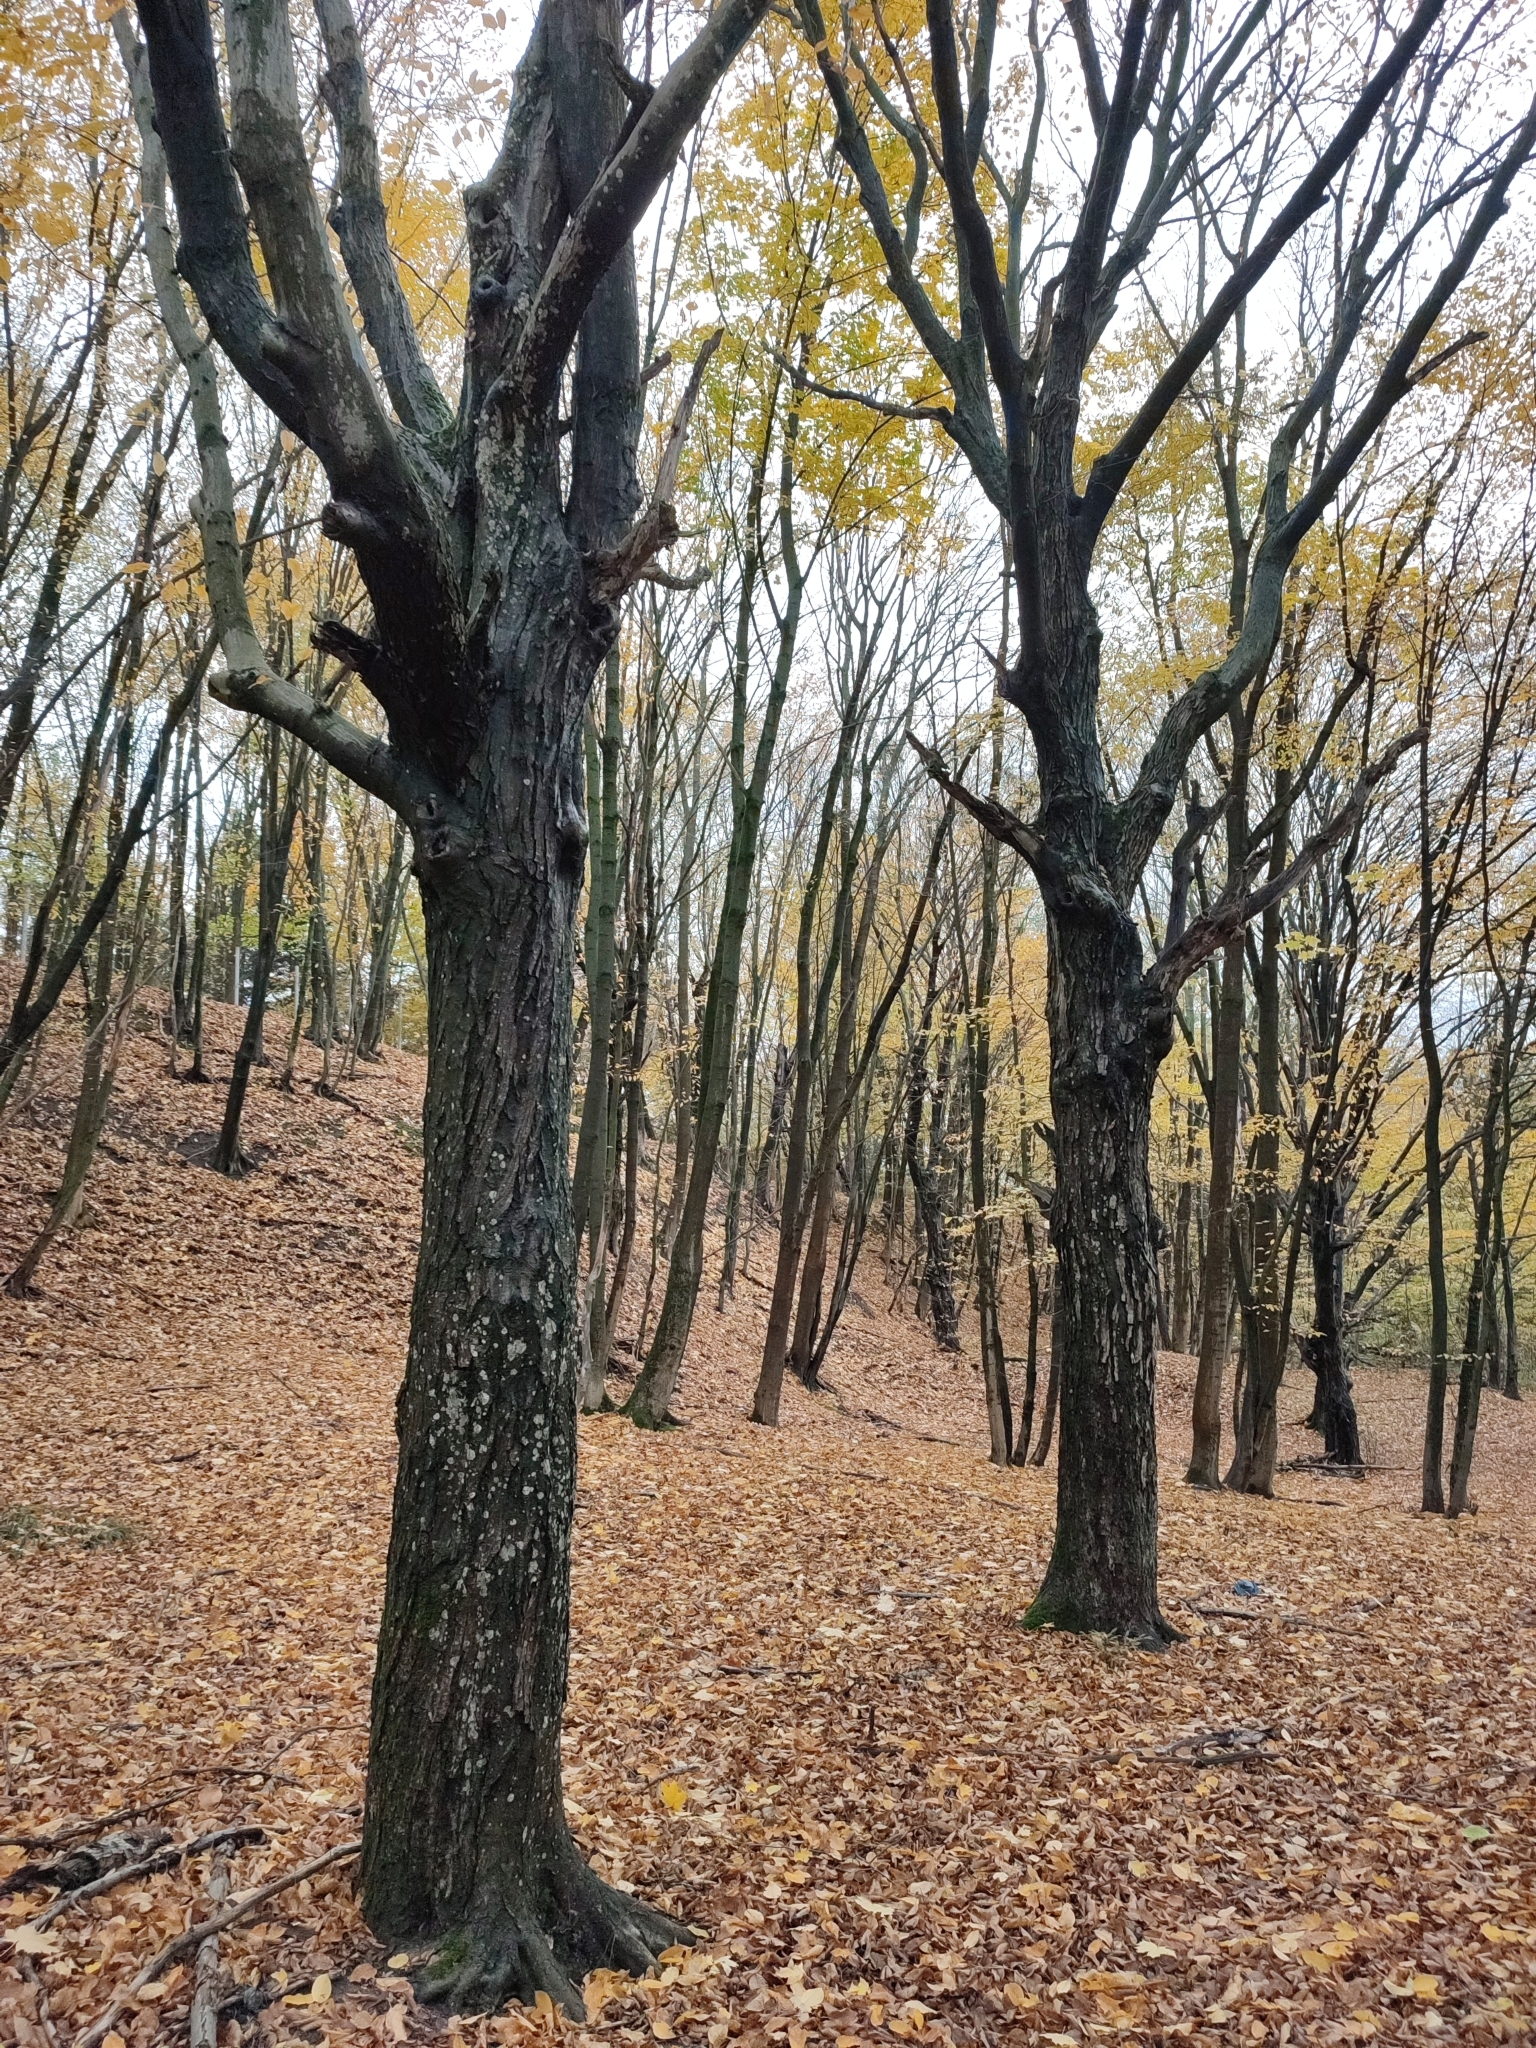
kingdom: Plantae
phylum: Tracheophyta
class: Magnoliopsida
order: Fagales
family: Betulaceae
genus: Carpinus
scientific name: Carpinus betulus
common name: Hornbeam
